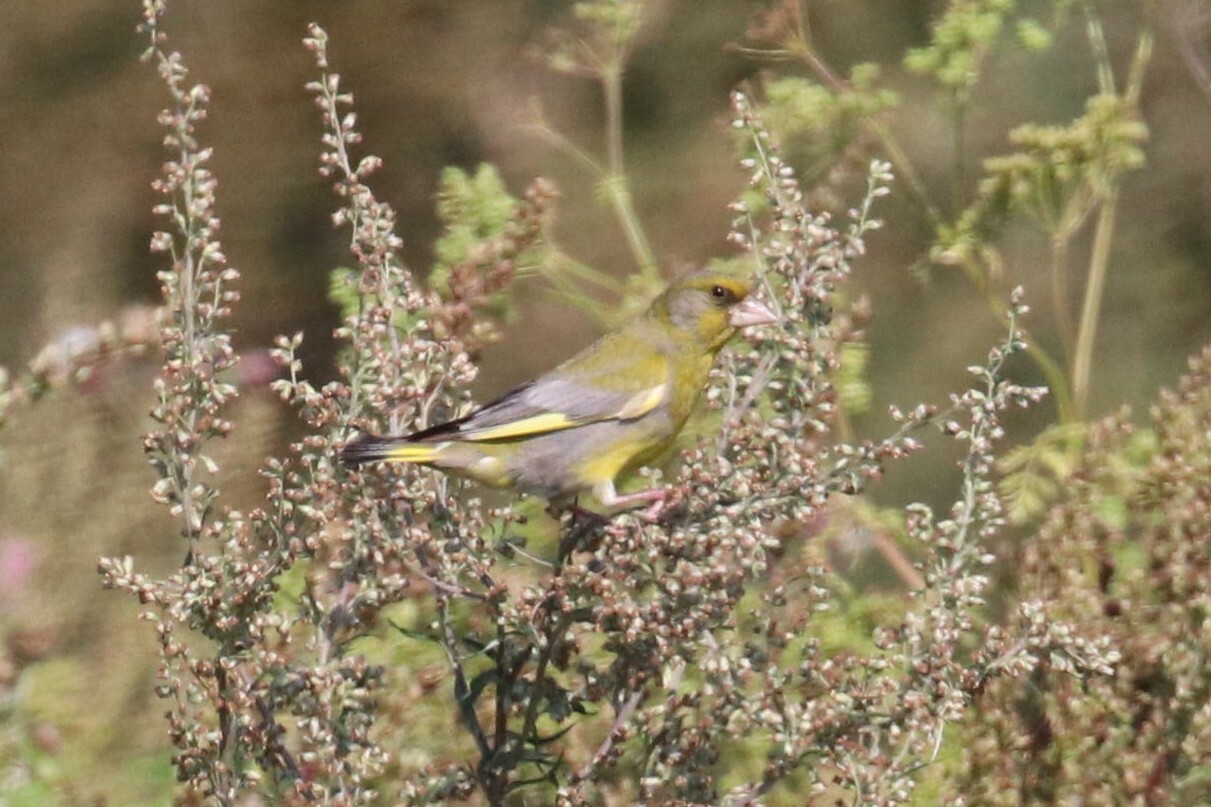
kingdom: Plantae
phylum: Tracheophyta
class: Liliopsida
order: Poales
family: Poaceae
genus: Chloris
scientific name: Chloris chloris
